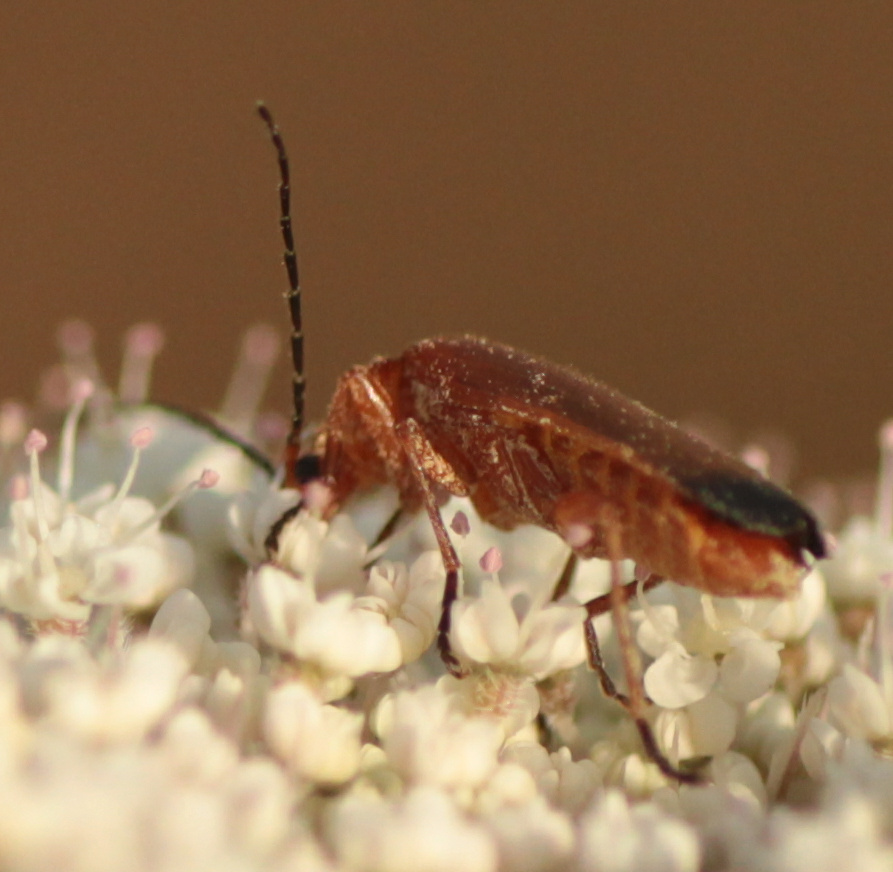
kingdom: Animalia
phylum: Arthropoda
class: Insecta
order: Coleoptera
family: Cantharidae
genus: Rhagonycha
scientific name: Rhagonycha fulva
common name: Common red soldier beetle
